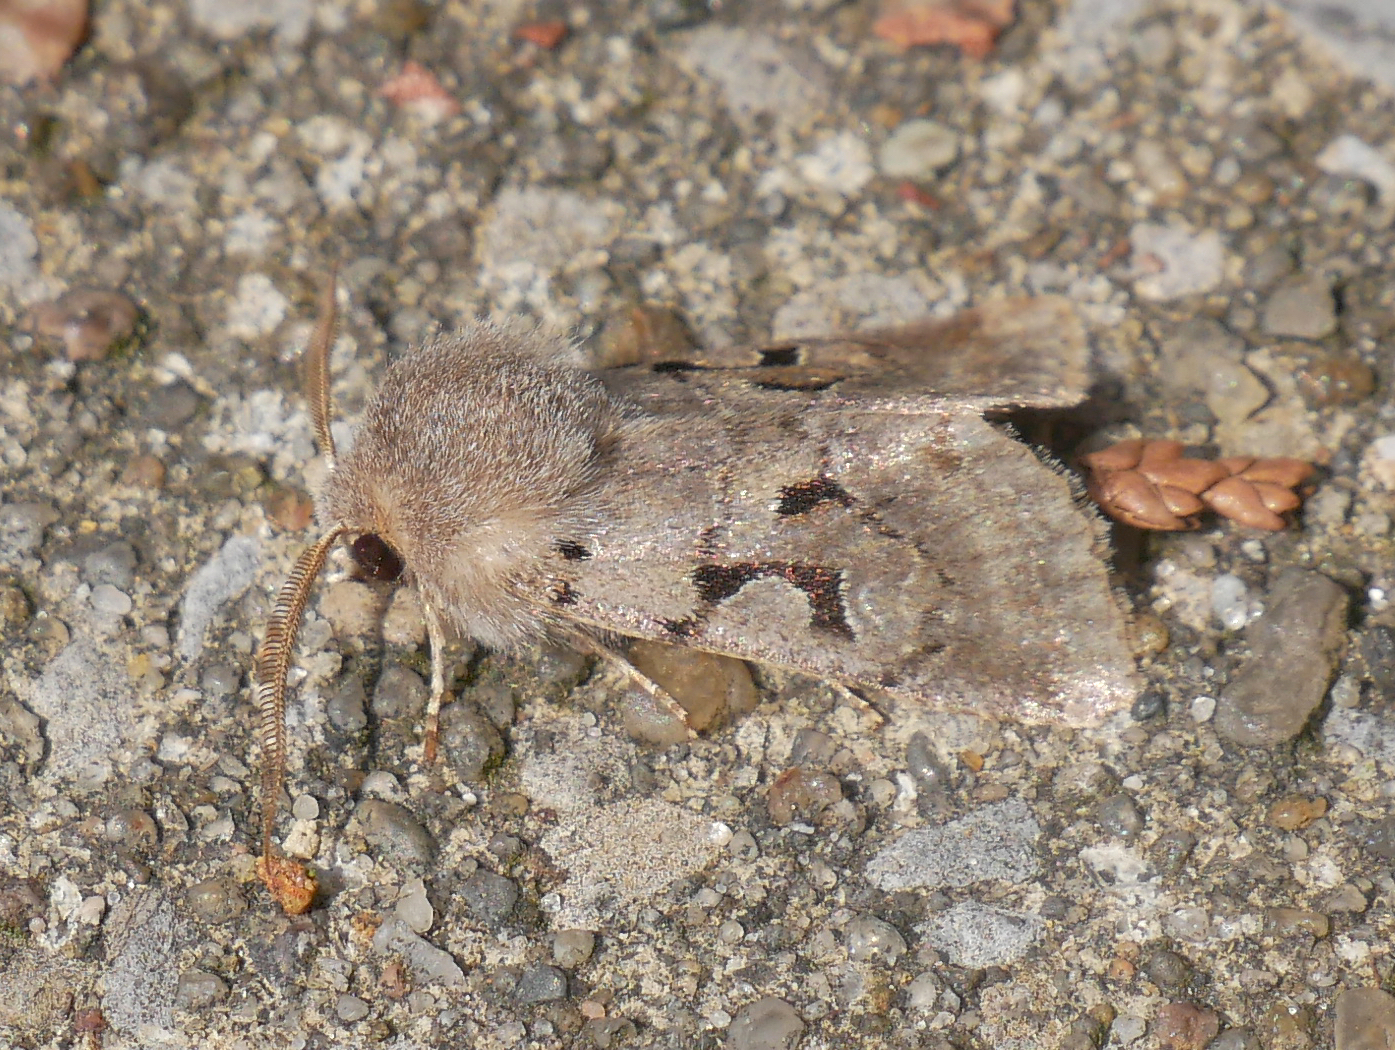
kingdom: Animalia
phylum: Arthropoda
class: Insecta
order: Lepidoptera
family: Noctuidae
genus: Orthosia
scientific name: Orthosia gothica
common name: Hebrew character
